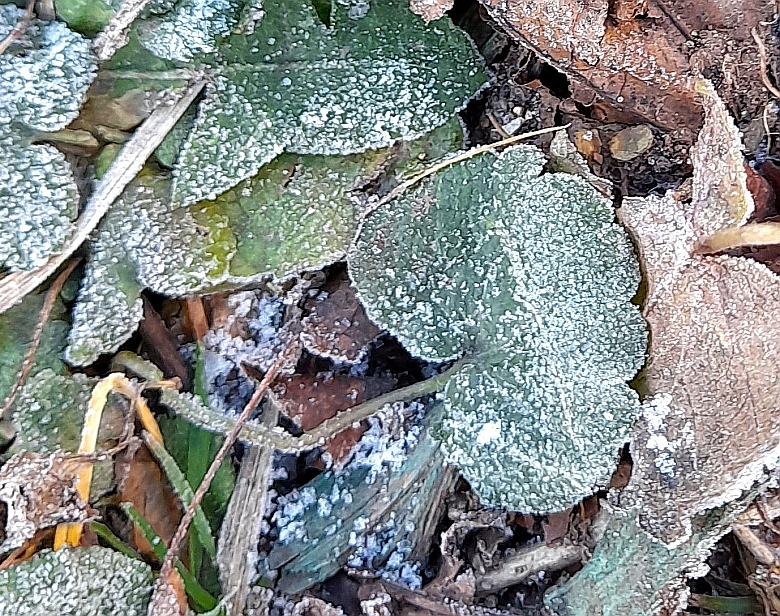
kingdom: Plantae
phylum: Tracheophyta
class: Magnoliopsida
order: Lamiales
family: Lamiaceae
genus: Glechoma
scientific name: Glechoma hederacea
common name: Ground ivy
